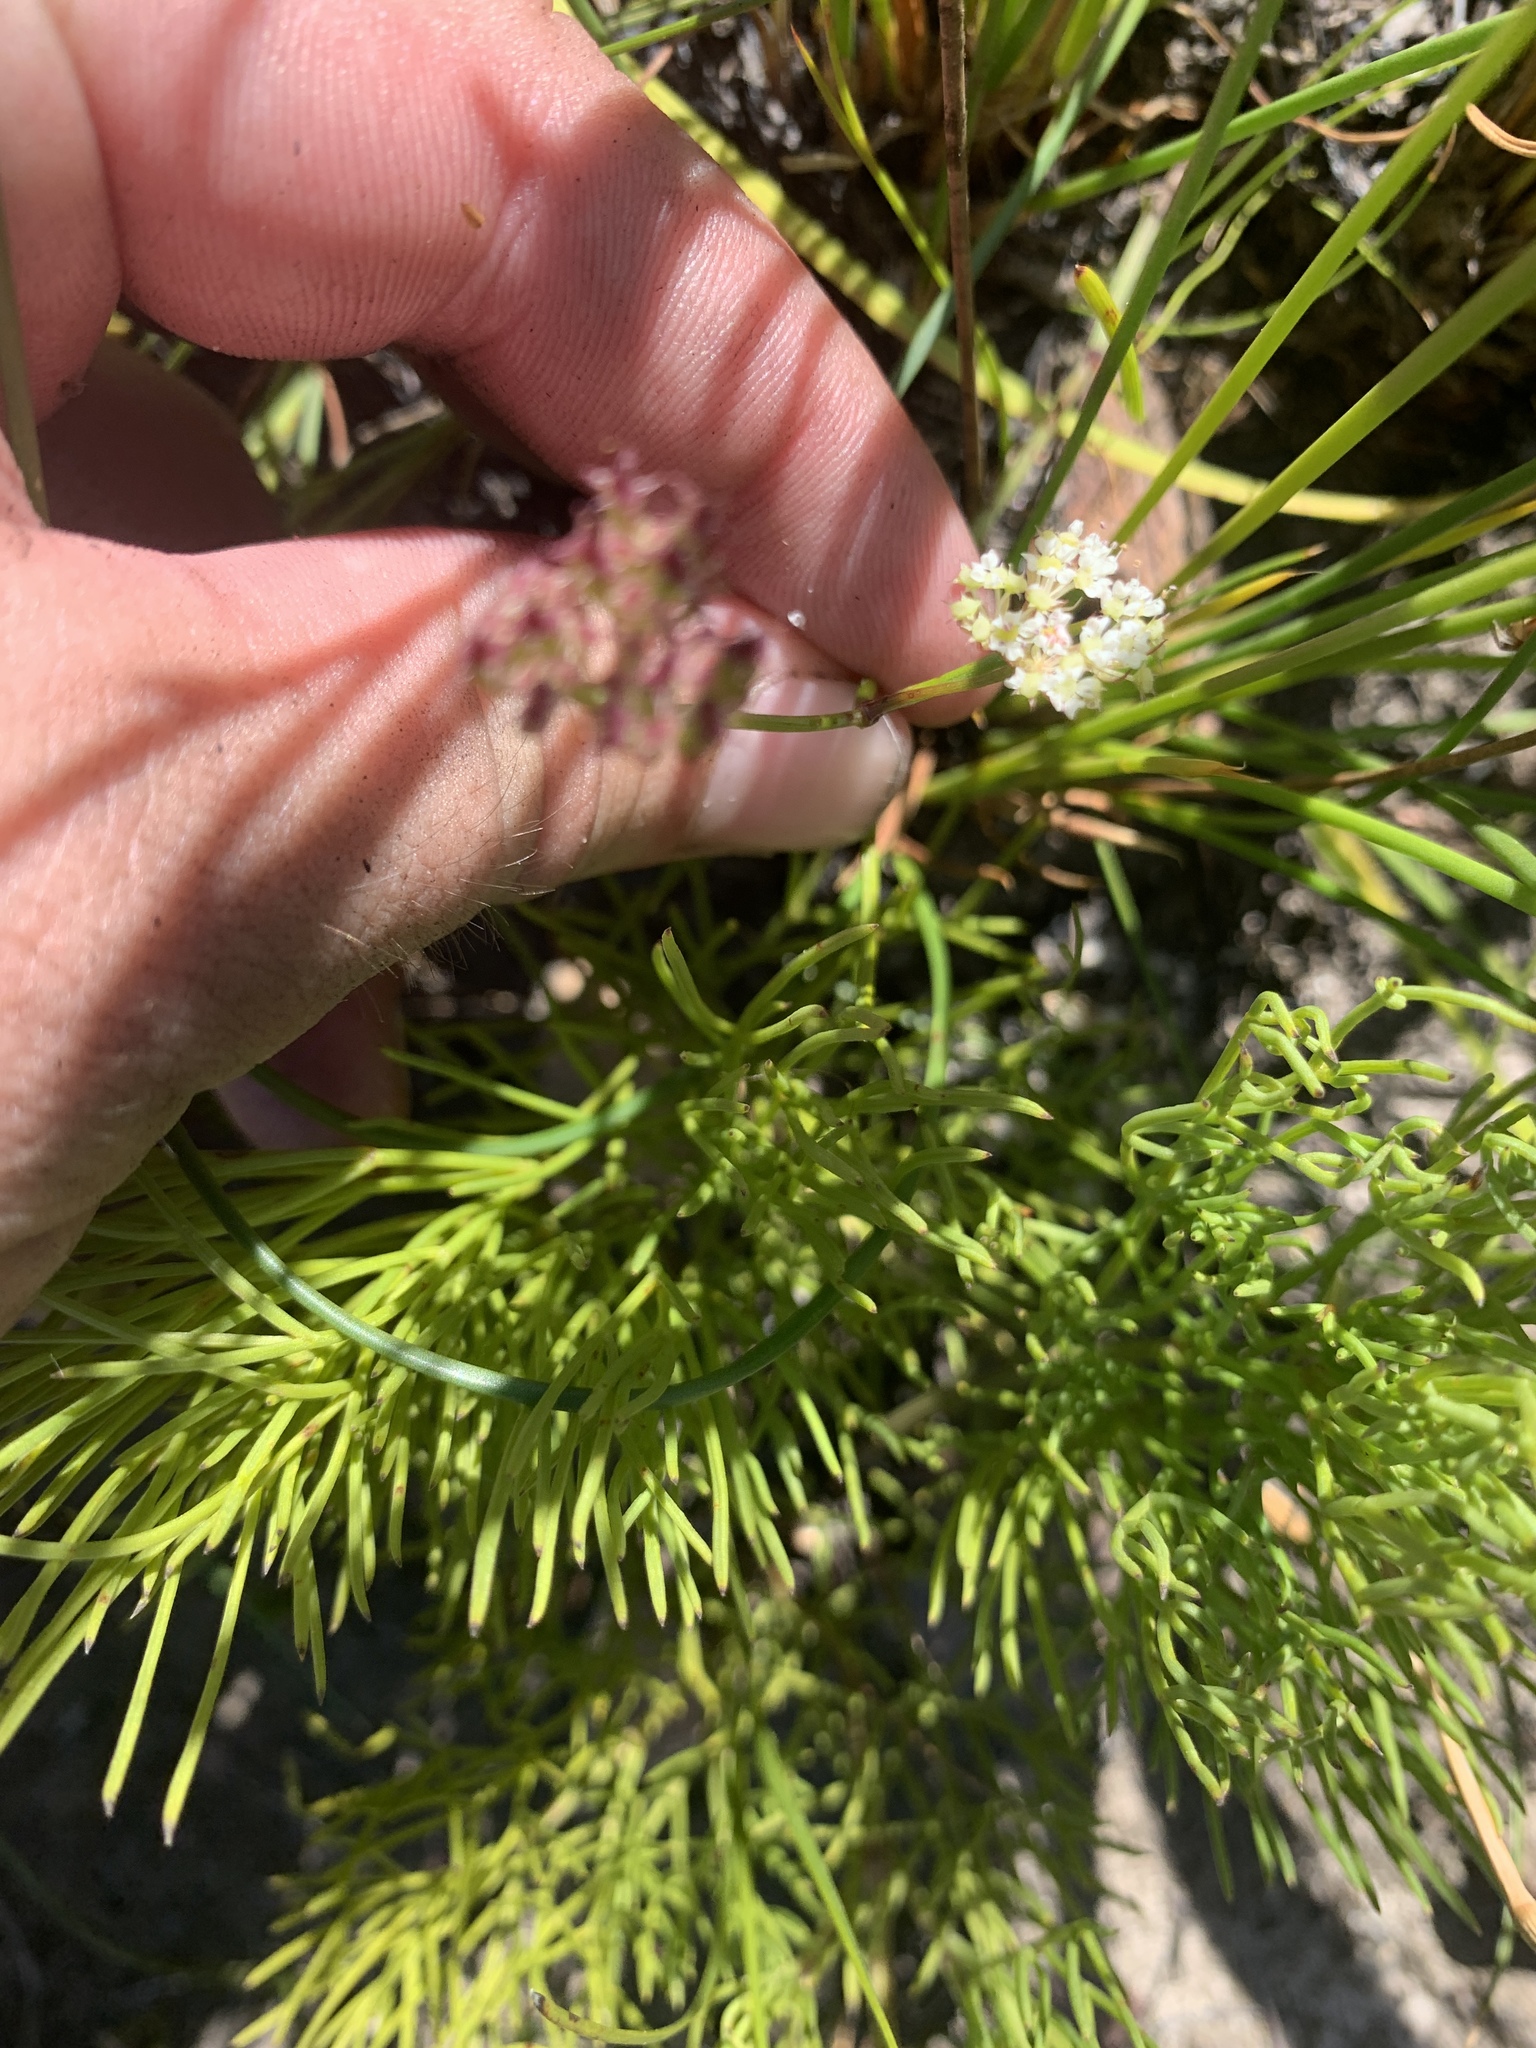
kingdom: Plantae
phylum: Tracheophyta
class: Magnoliopsida
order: Apiales
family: Apiaceae
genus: Itasina
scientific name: Itasina filifolia
